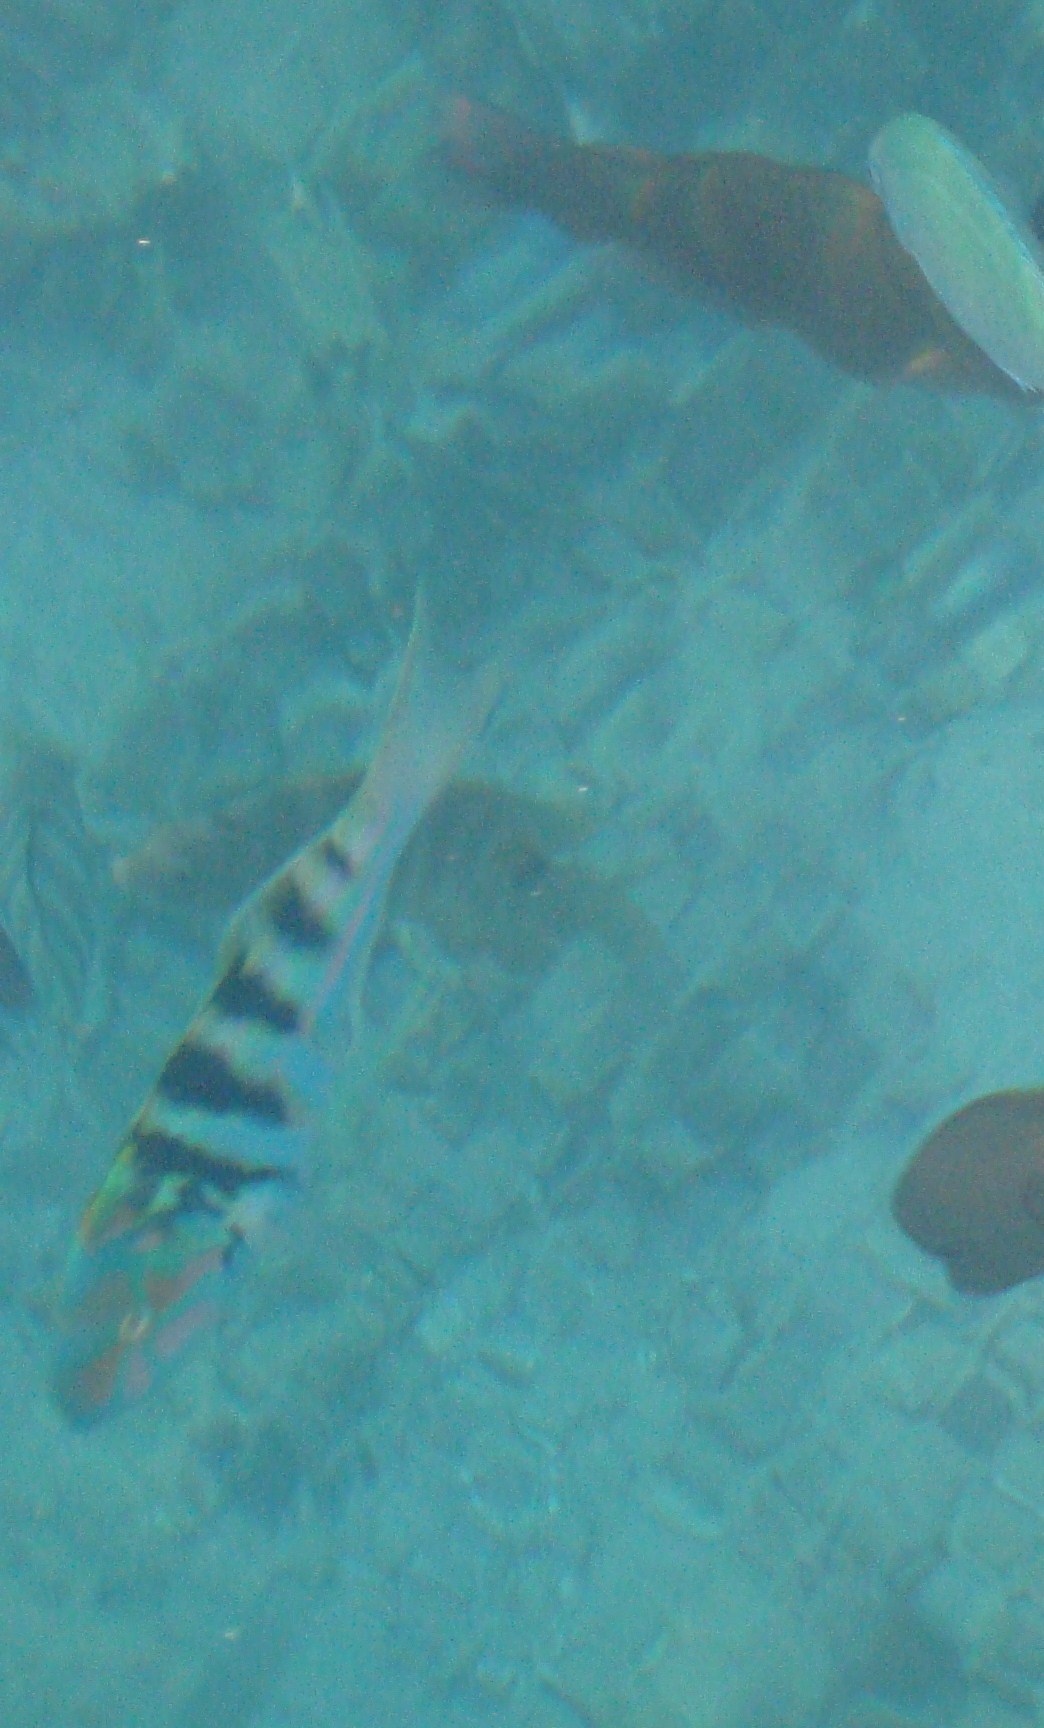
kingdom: Animalia
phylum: Chordata
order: Perciformes
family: Labridae
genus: Thalassoma
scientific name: Thalassoma hardwicke
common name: Sixbar wrasse
